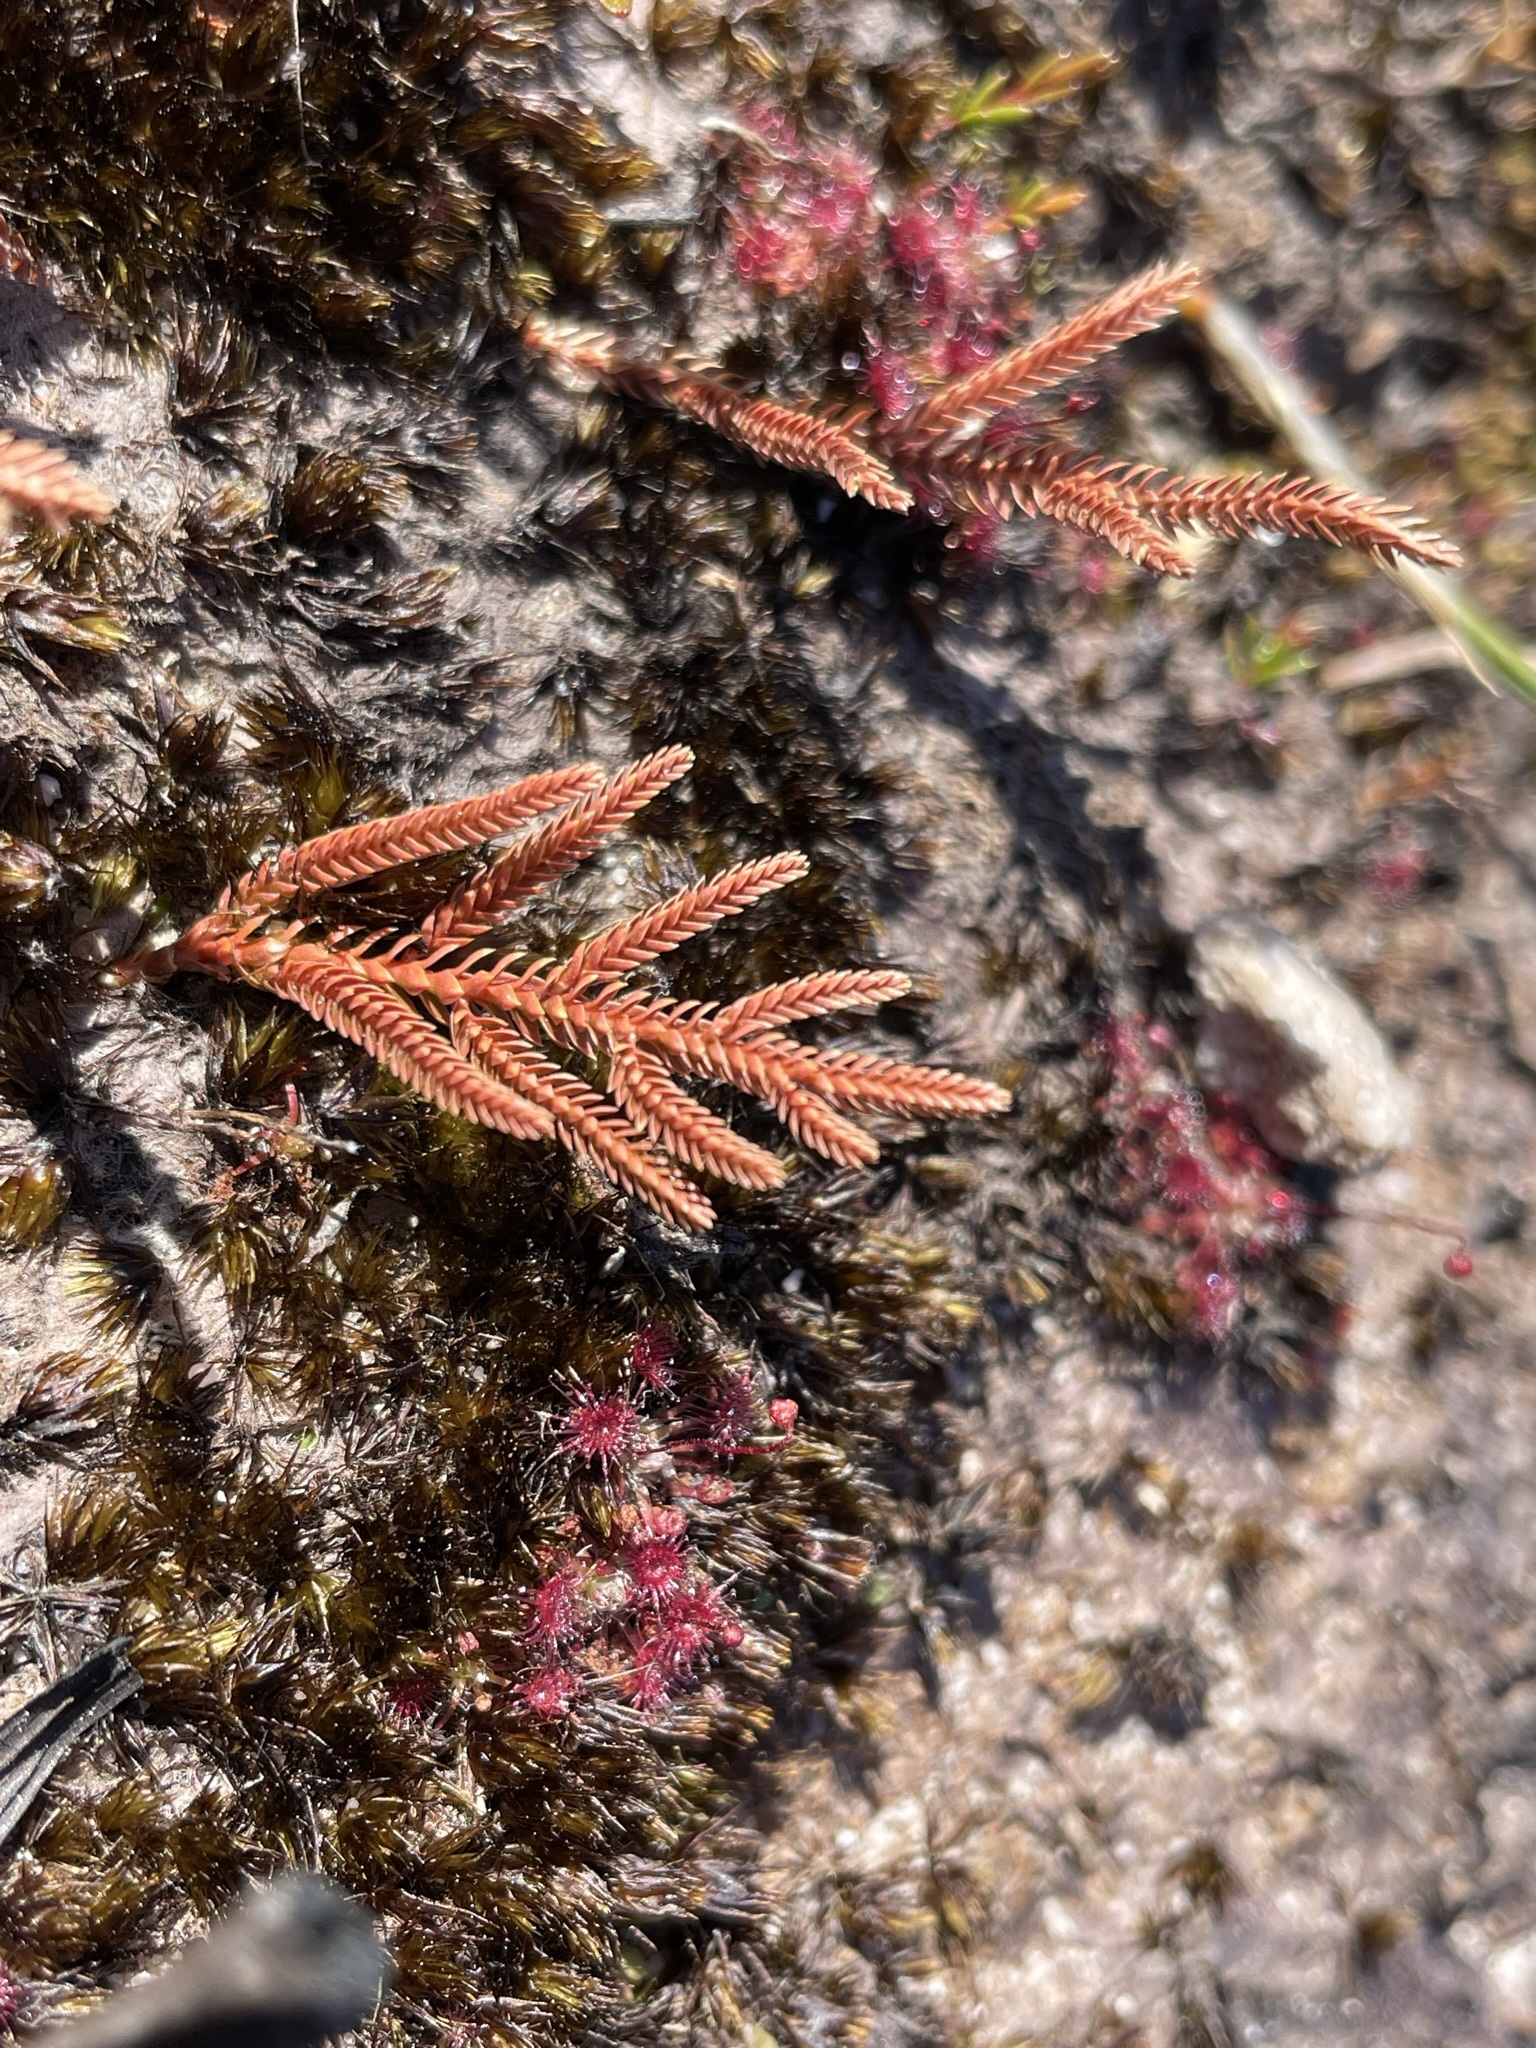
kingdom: Plantae
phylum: Tracheophyta
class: Lycopodiopsida
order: Selaginellales
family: Selaginellaceae
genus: Selaginella
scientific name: Selaginella uliginosa
